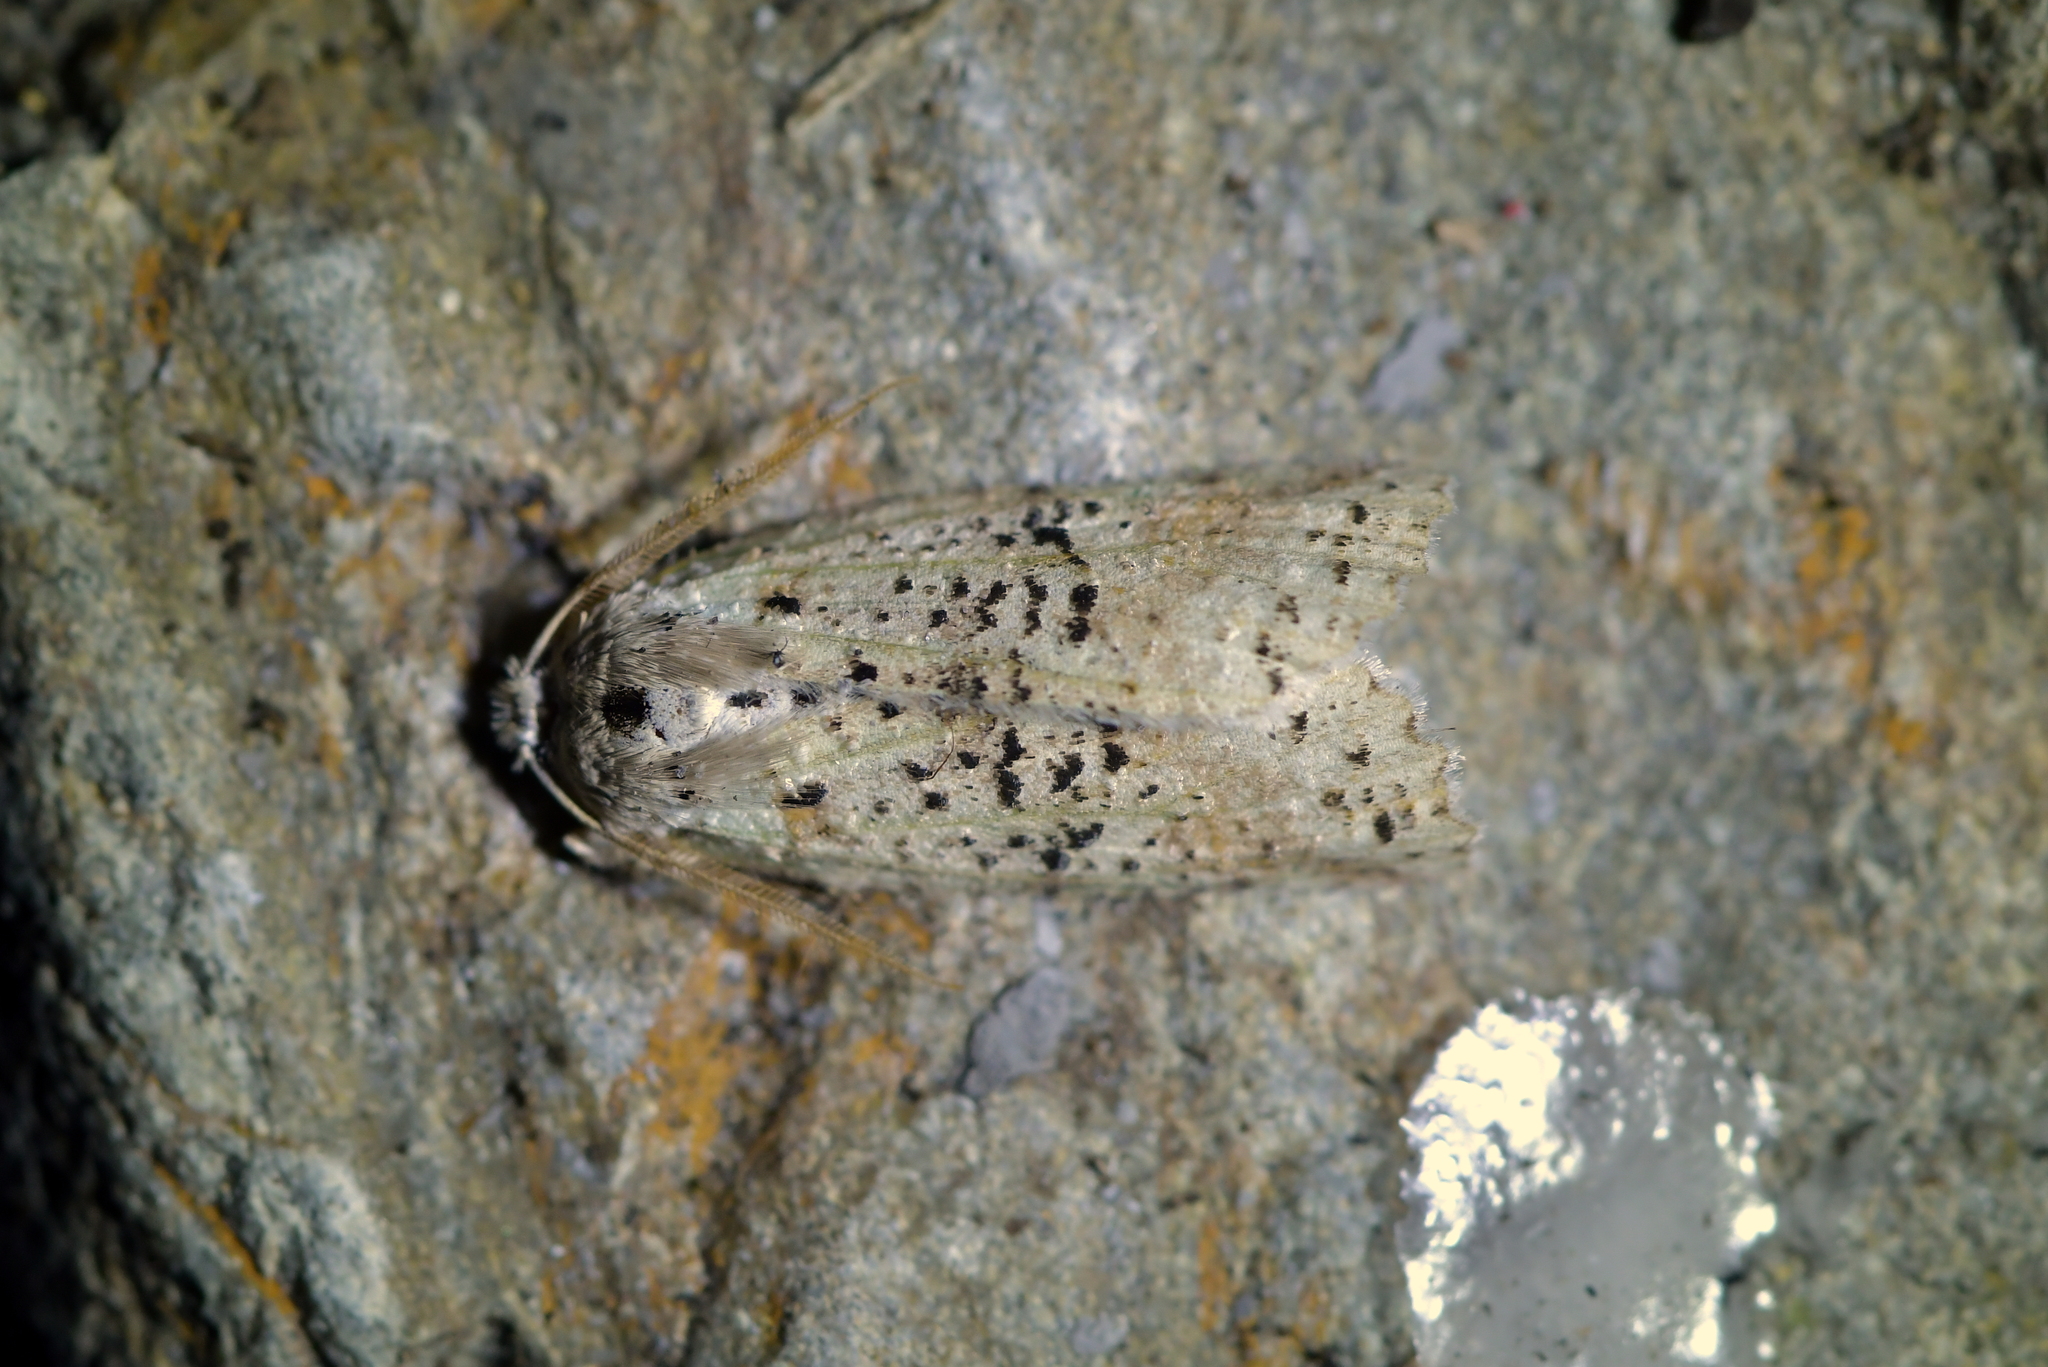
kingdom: Animalia
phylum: Arthropoda
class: Insecta
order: Lepidoptera
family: Geometridae
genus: Declana
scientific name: Declana floccosa
